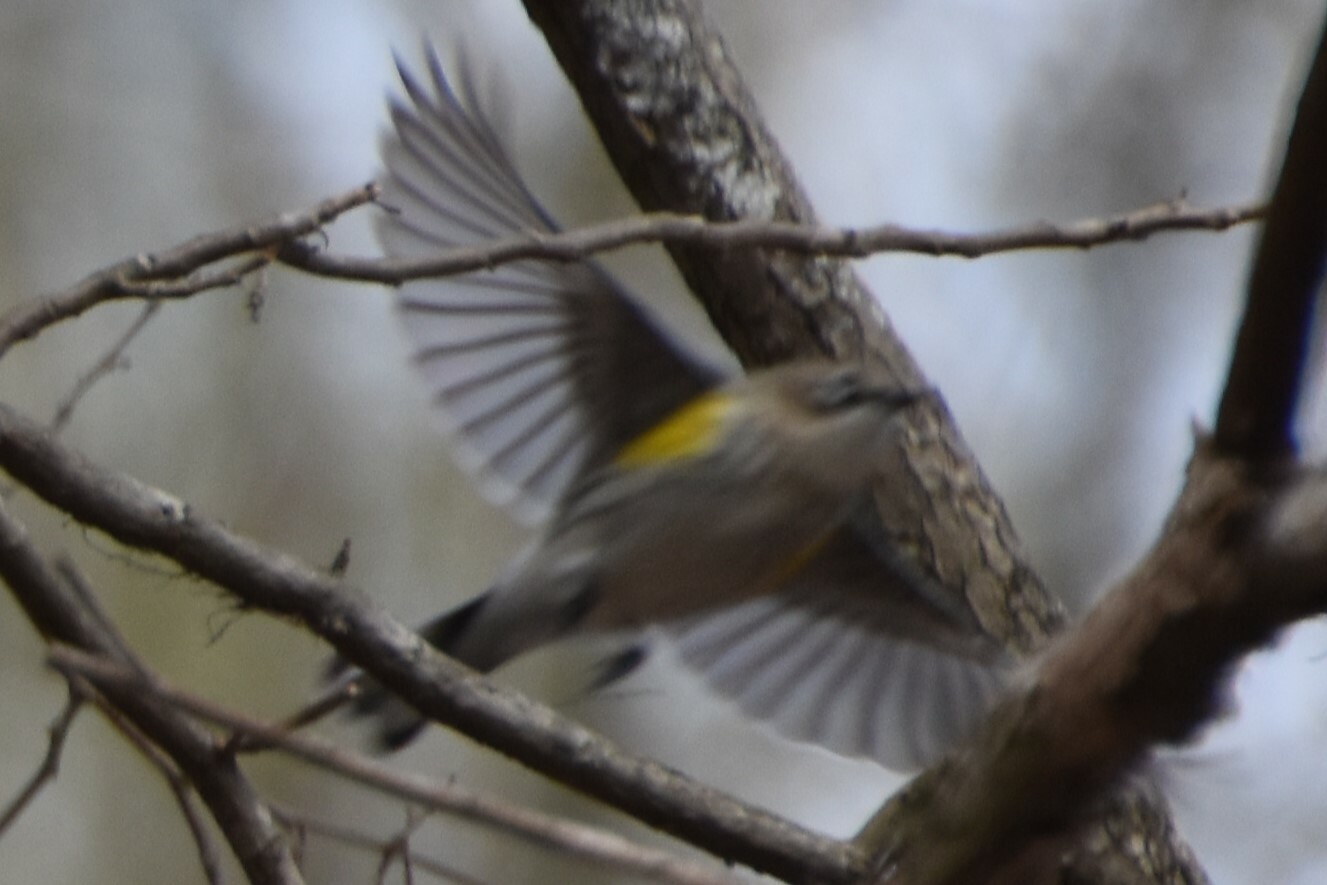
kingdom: Animalia
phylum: Chordata
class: Aves
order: Passeriformes
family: Parulidae
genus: Setophaga
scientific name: Setophaga coronata
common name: Myrtle warbler
